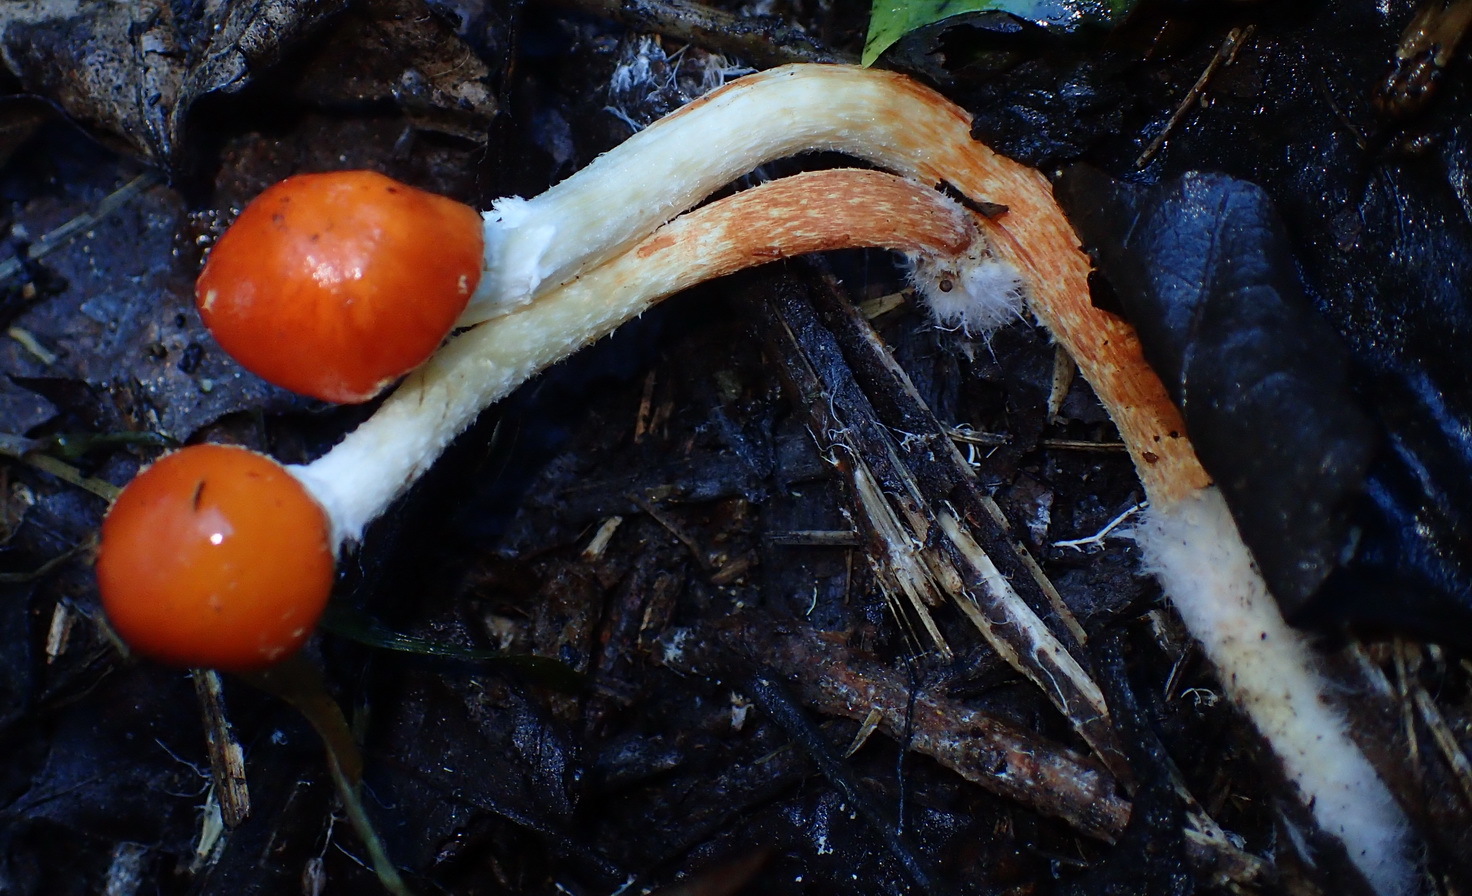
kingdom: Fungi
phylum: Basidiomycota
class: Agaricomycetes
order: Agaricales
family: Strophariaceae
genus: Leratiomyces
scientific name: Leratiomyces ceres
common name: Redlead roundhead
